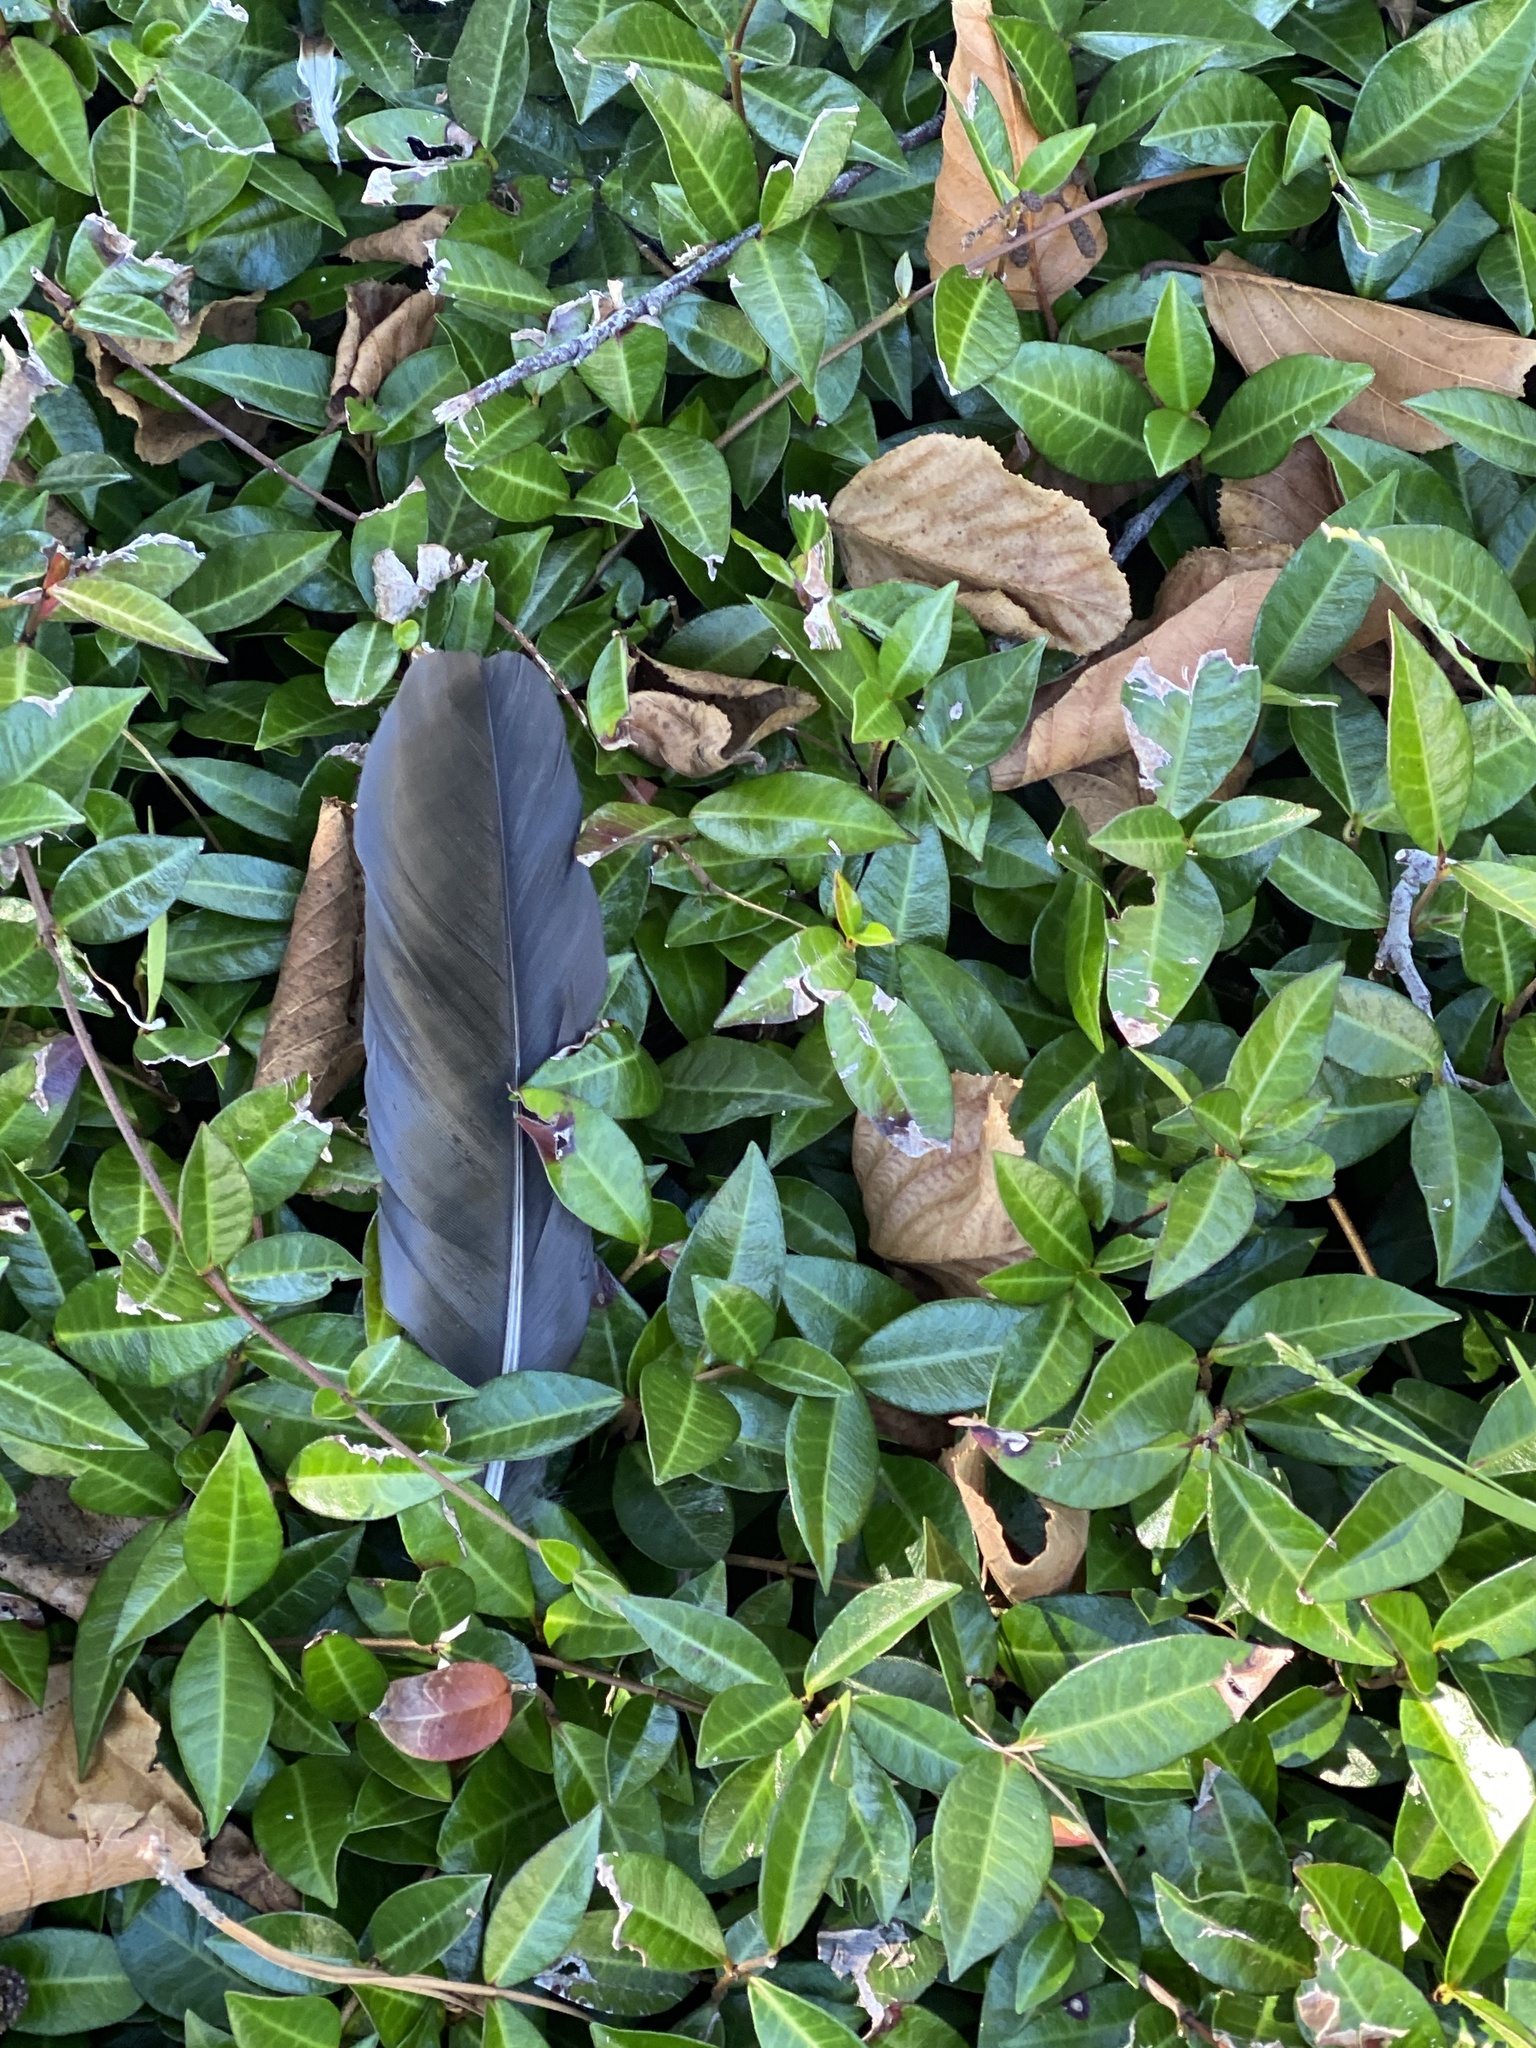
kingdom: Animalia
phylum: Chordata
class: Aves
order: Passeriformes
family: Corvidae
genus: Corvus
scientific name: Corvus brachyrhynchos
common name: American crow
